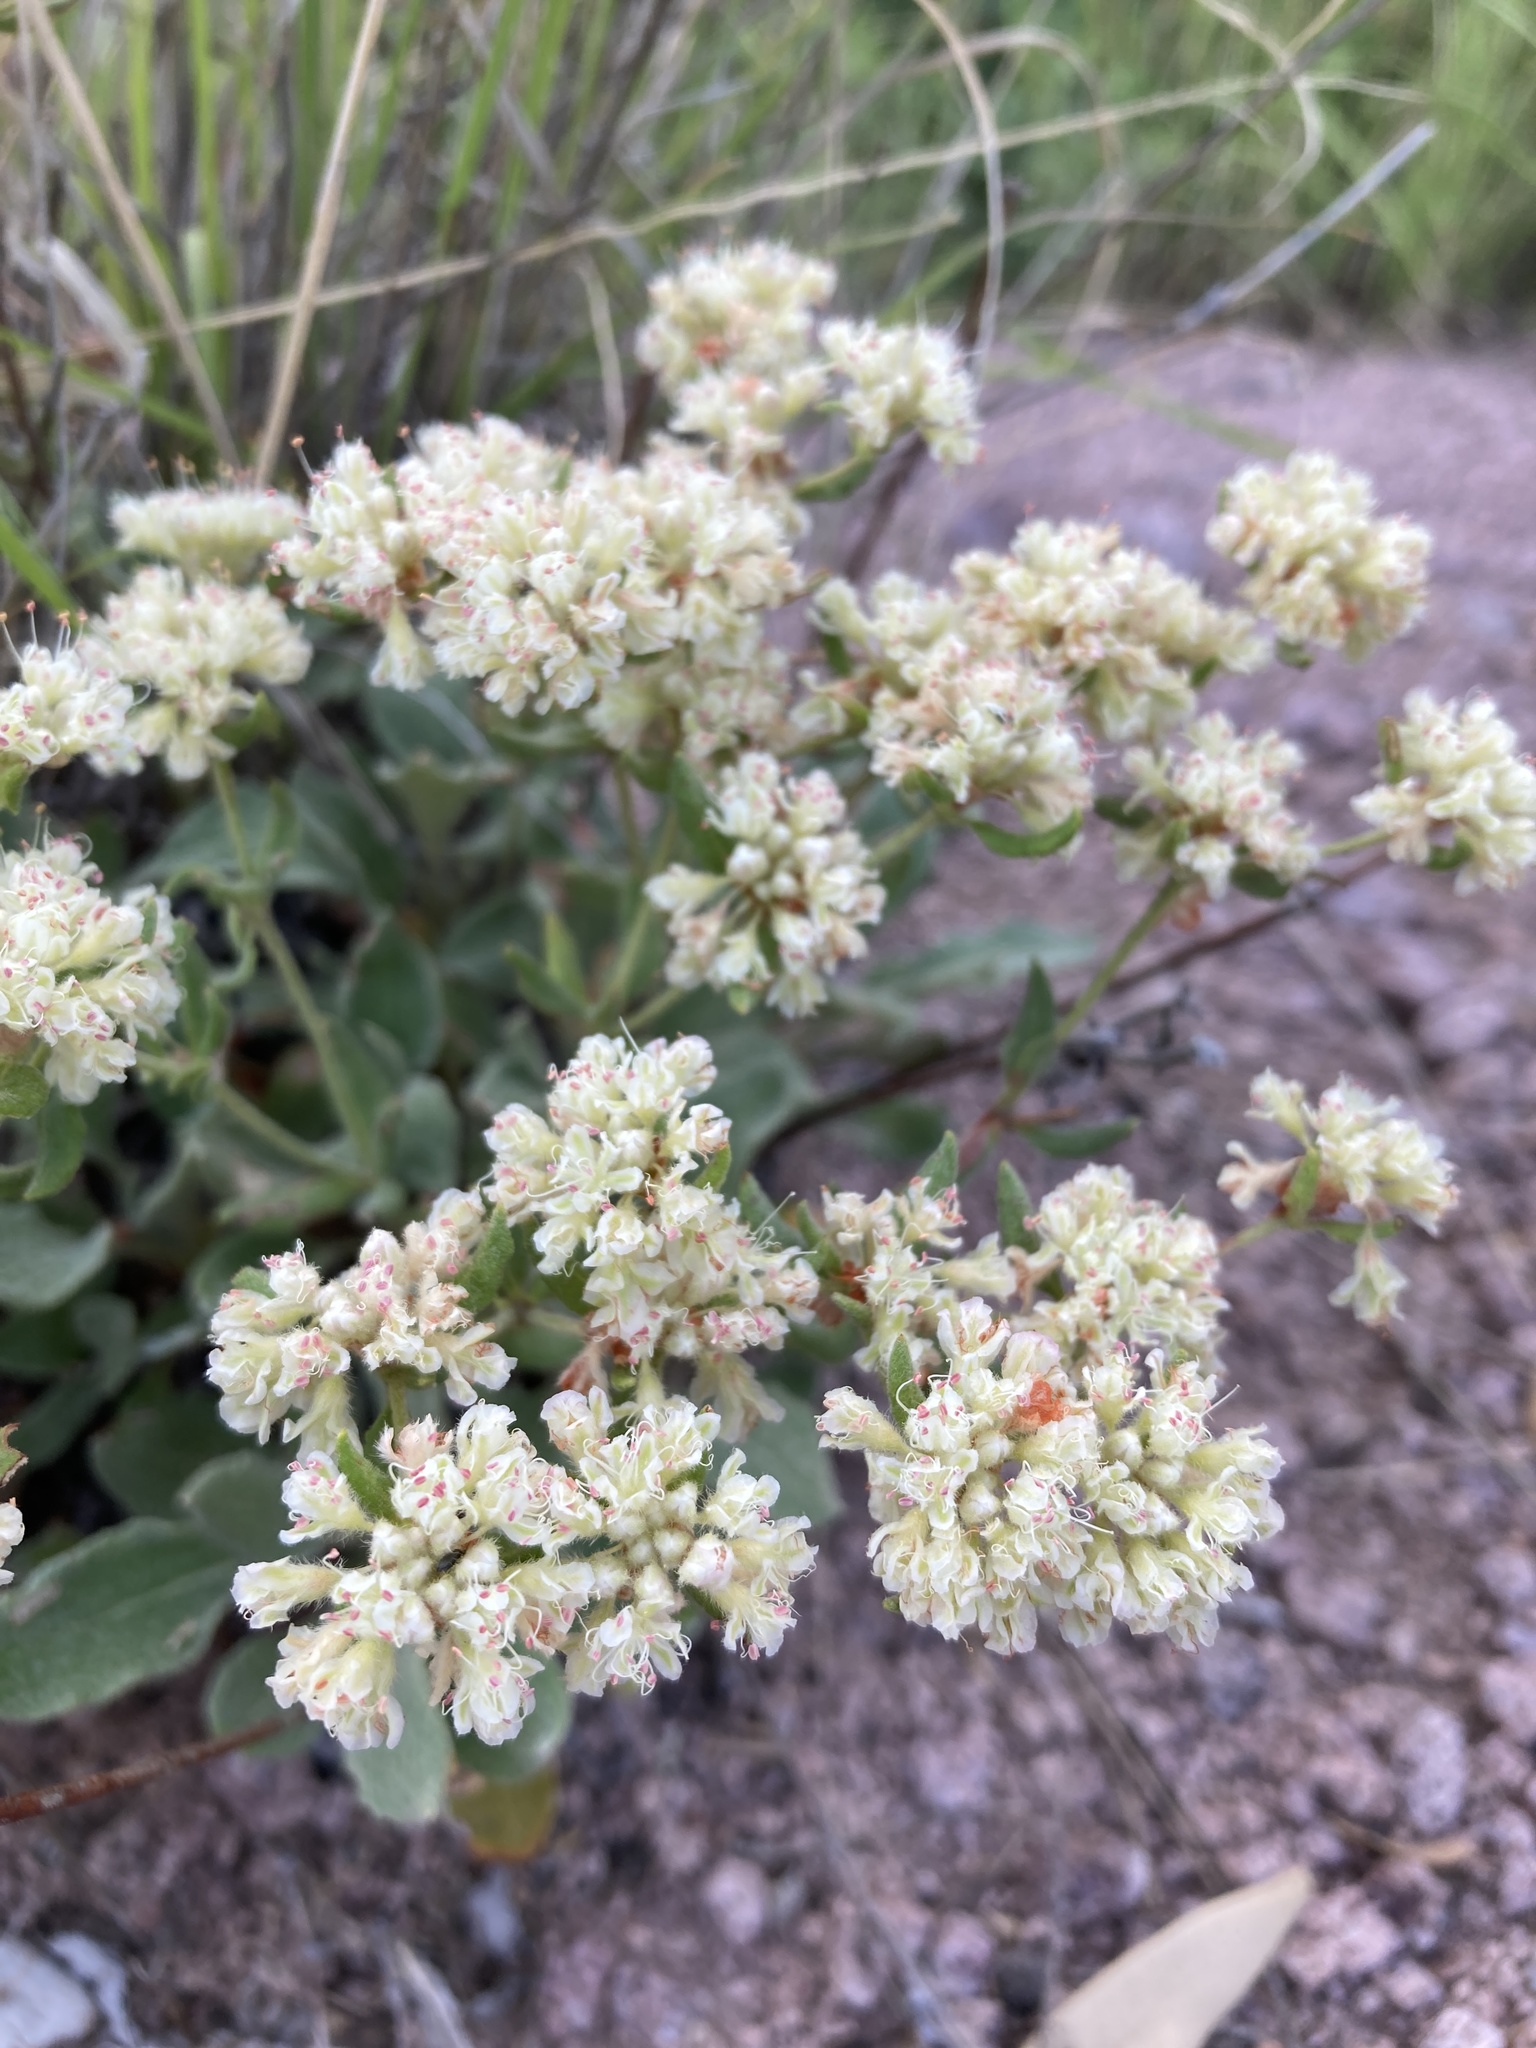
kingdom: Plantae
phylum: Tracheophyta
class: Magnoliopsida
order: Caryophyllales
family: Polygonaceae
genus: Eriogonum
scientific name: Eriogonum jamesii
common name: Antelope-sage
